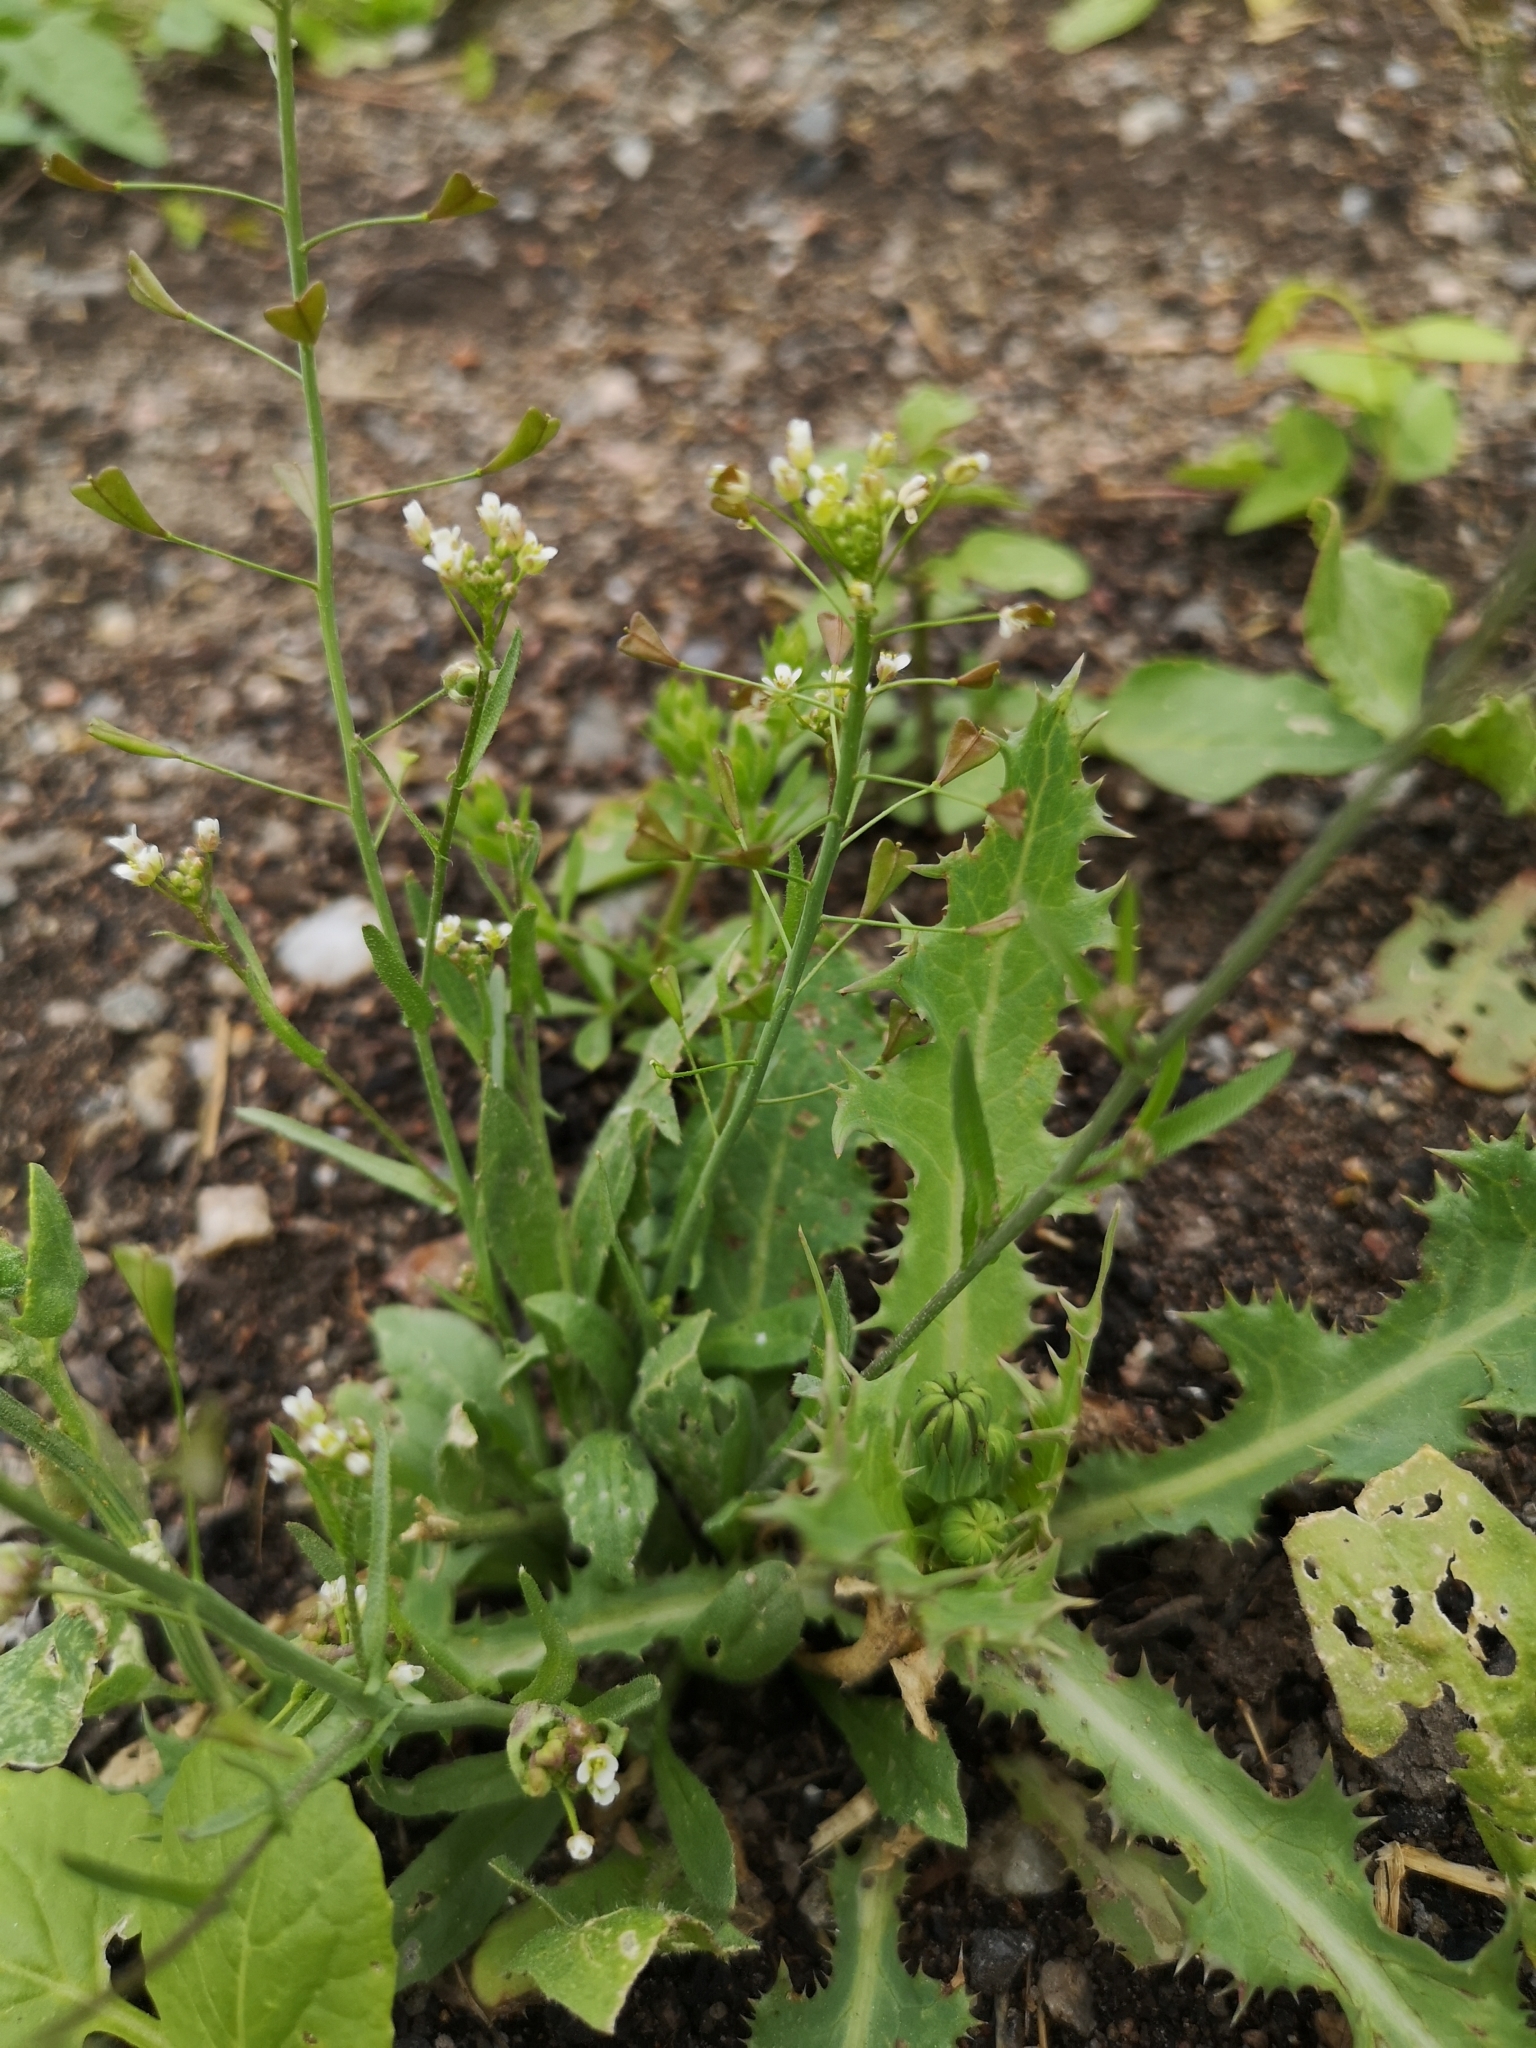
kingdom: Plantae
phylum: Tracheophyta
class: Magnoliopsida
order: Brassicales
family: Brassicaceae
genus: Capsella
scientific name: Capsella bursa-pastoris
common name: Shepherd's purse
